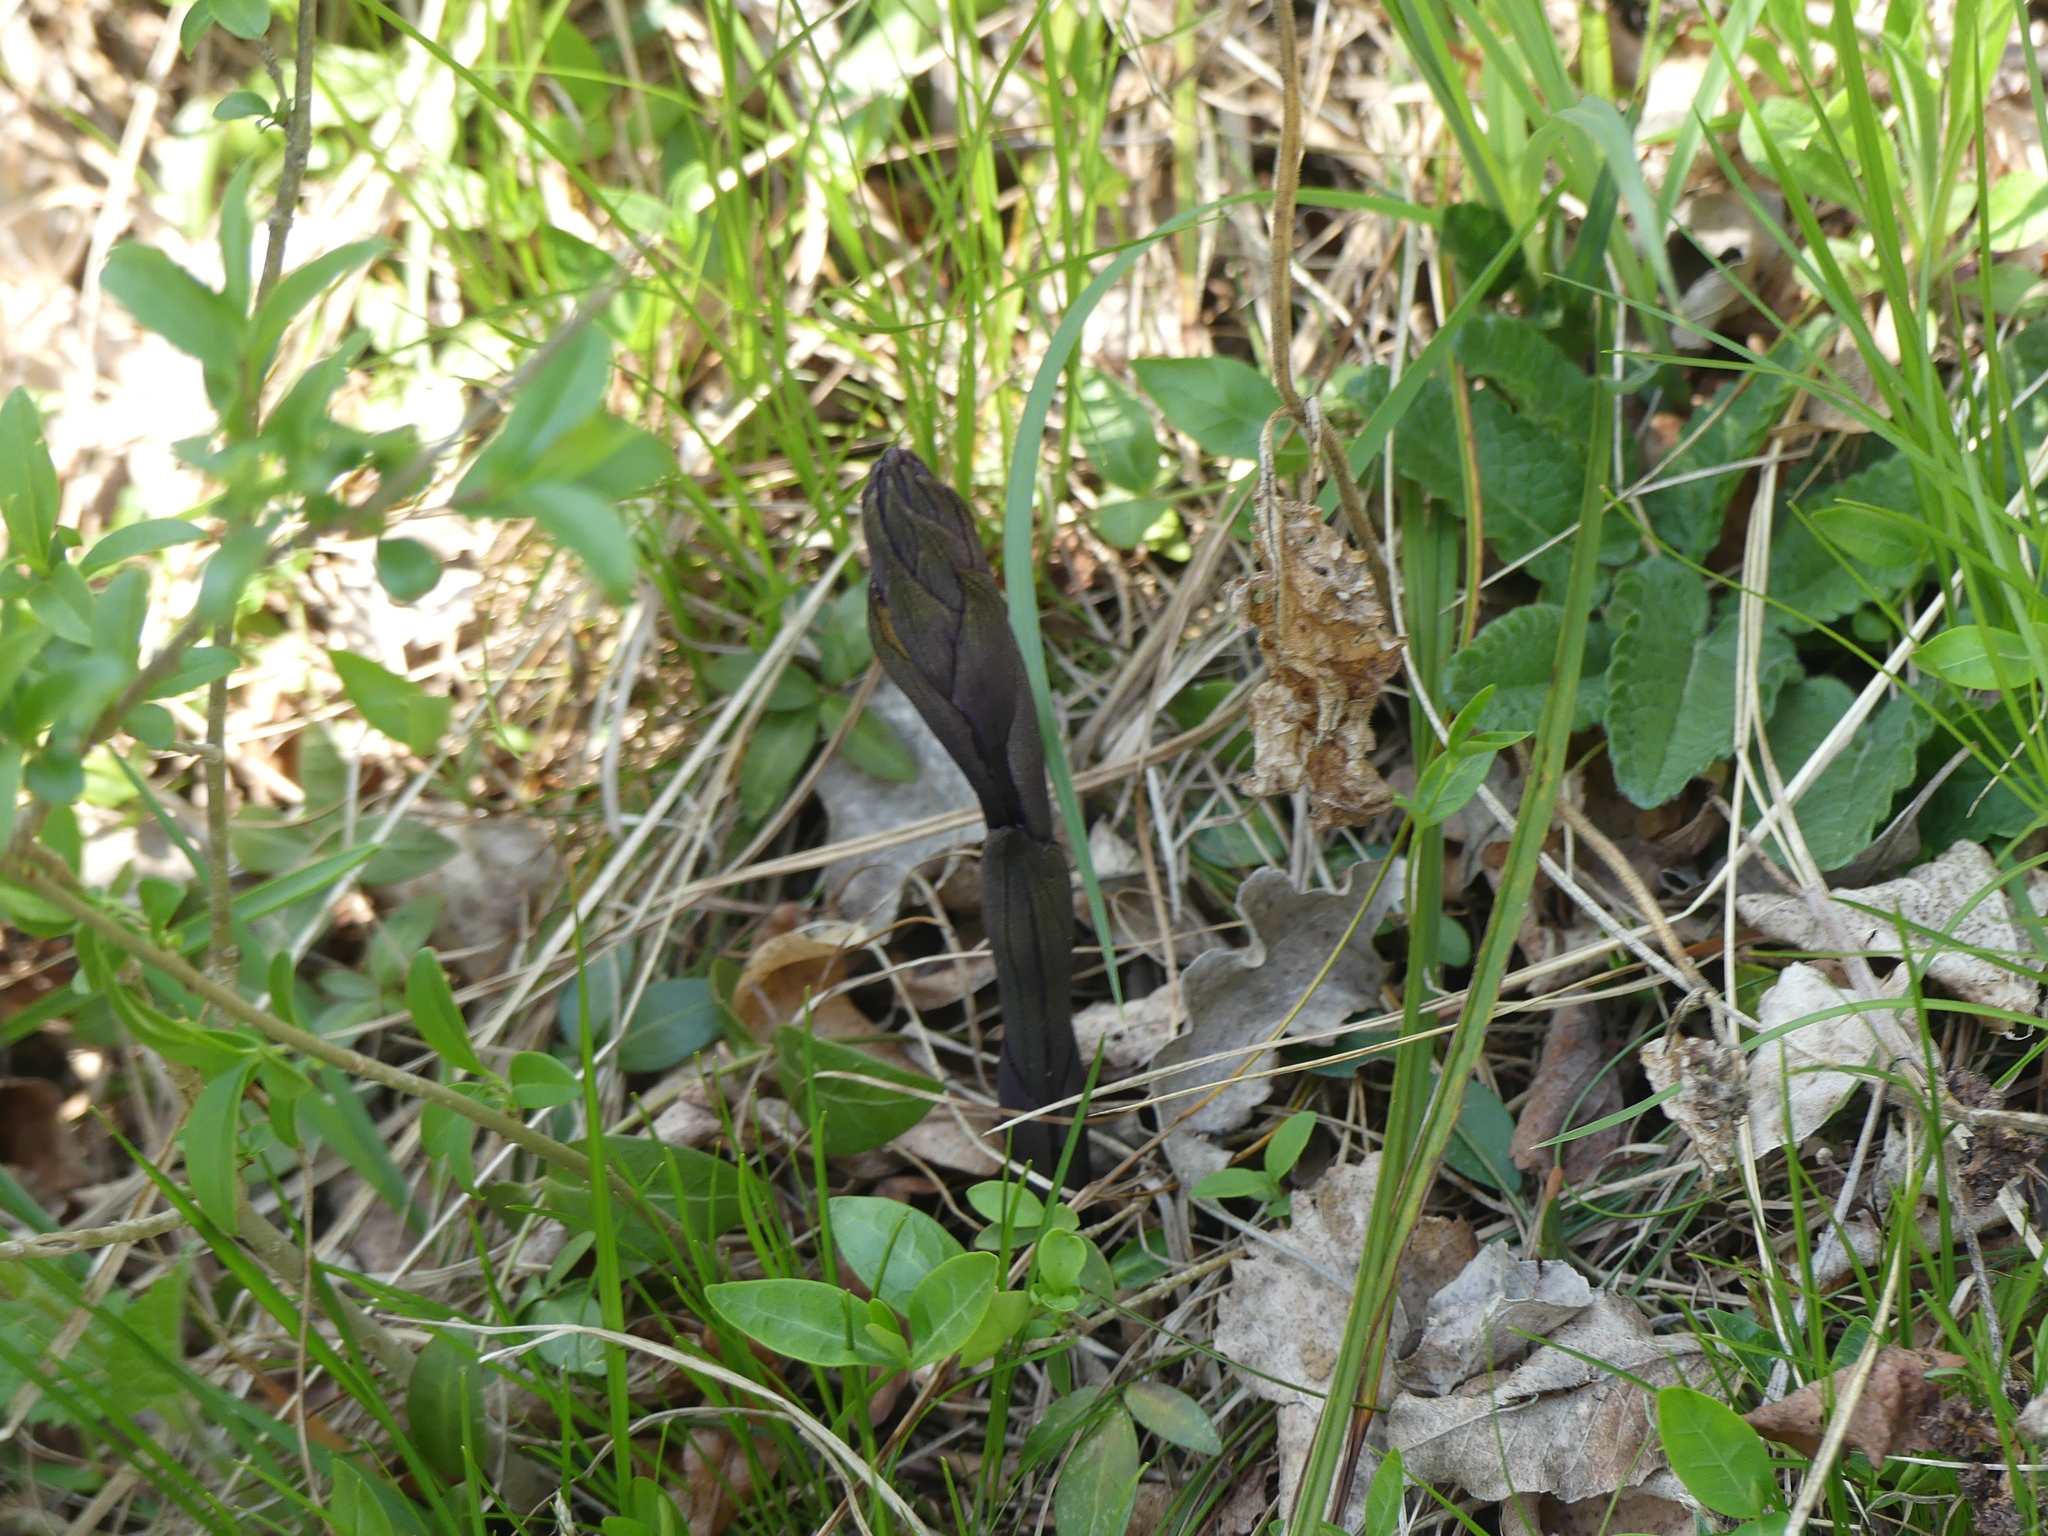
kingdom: Plantae
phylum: Tracheophyta
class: Liliopsida
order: Asparagales
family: Orchidaceae
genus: Limodorum
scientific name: Limodorum abortivum
